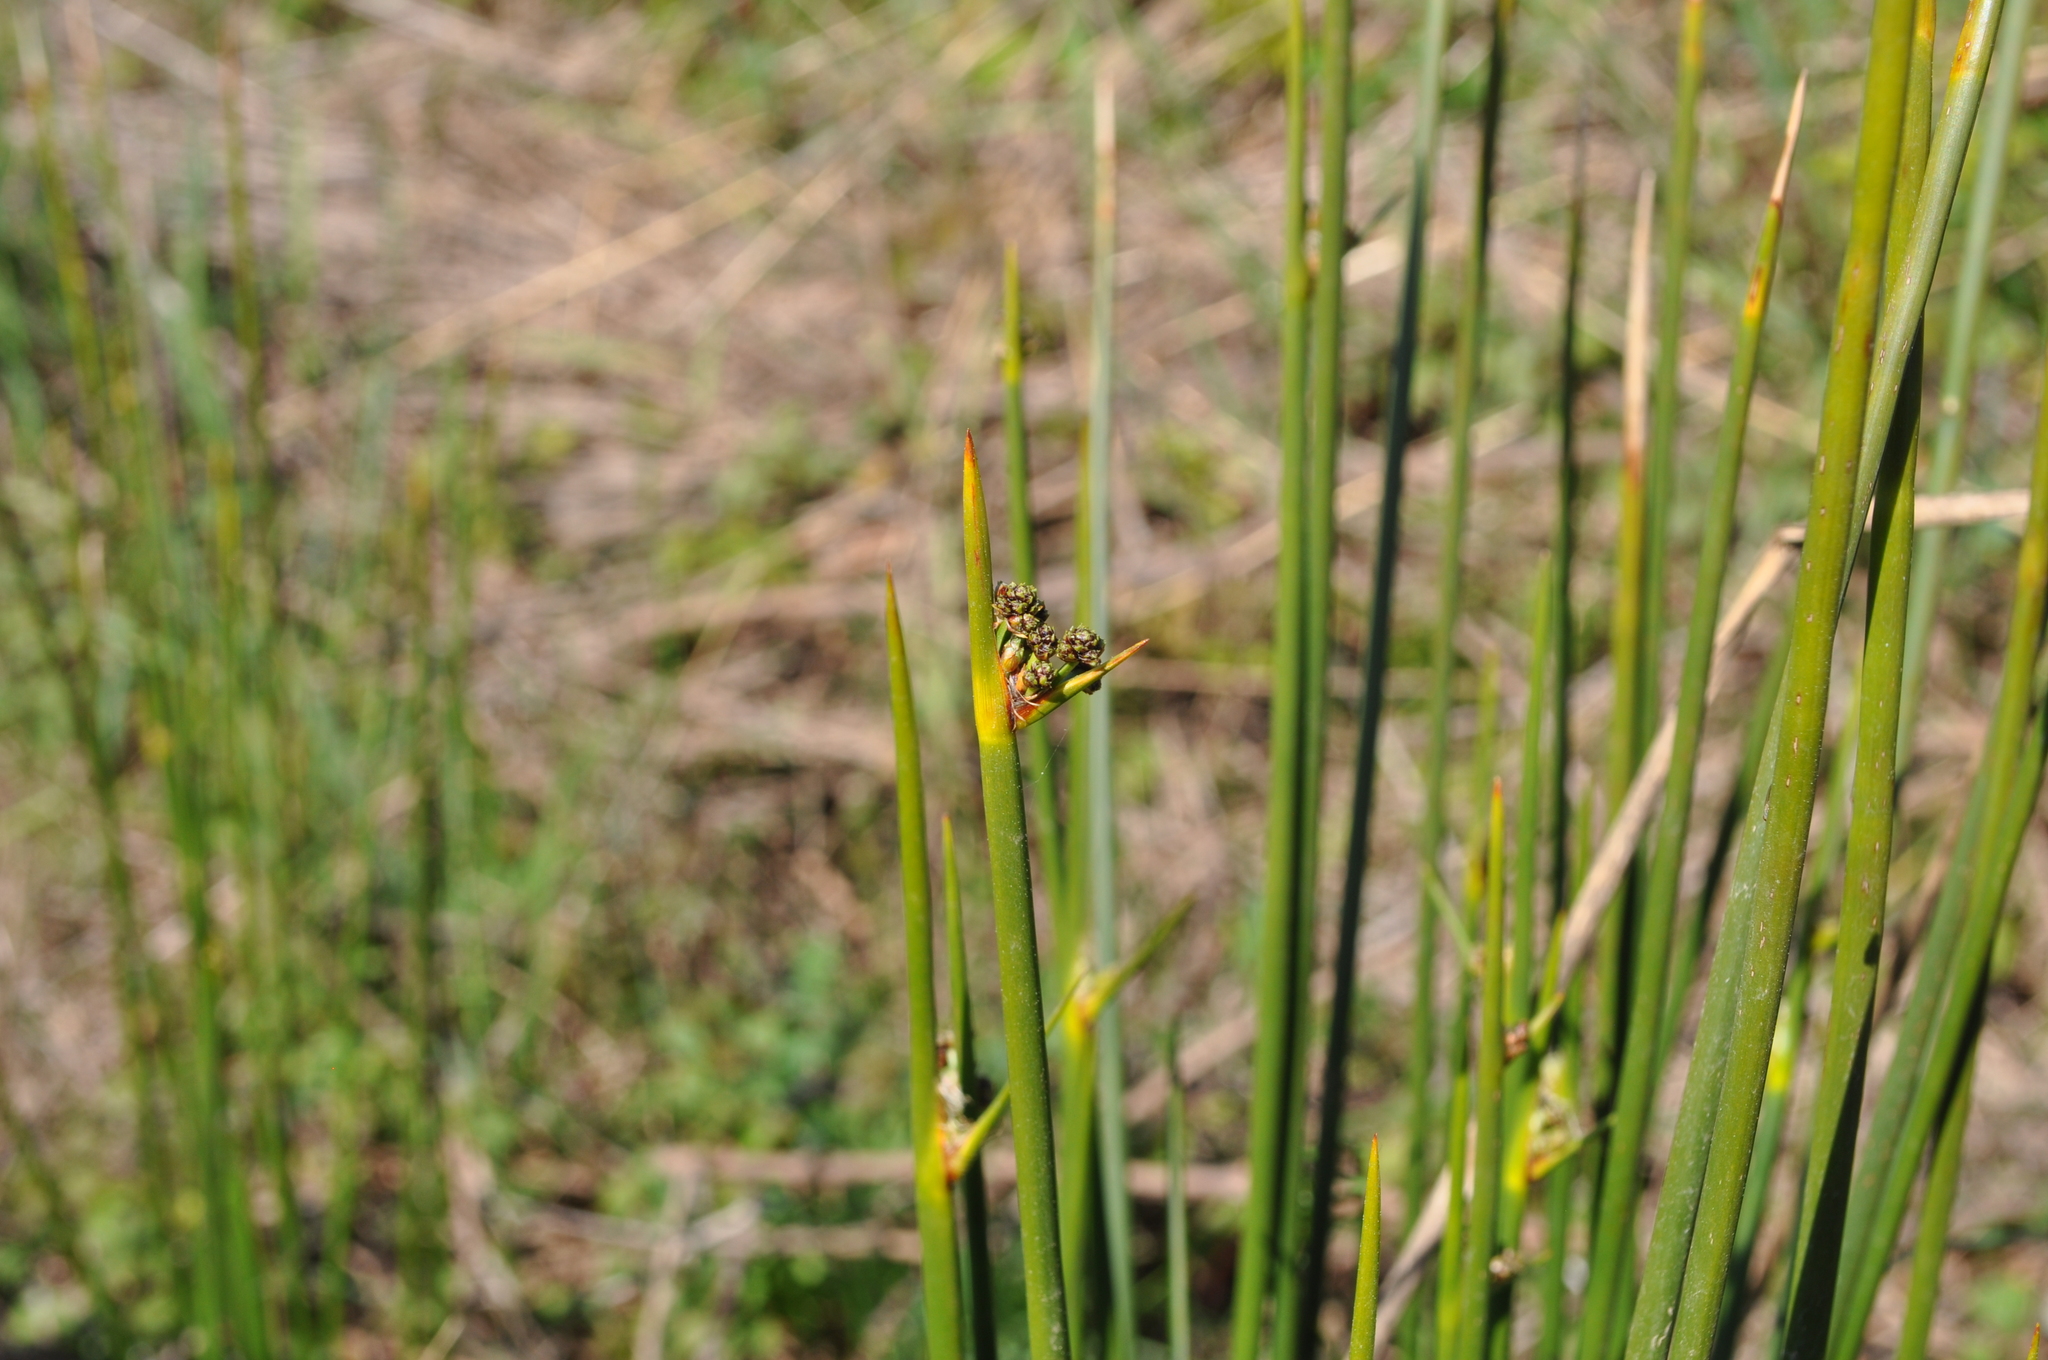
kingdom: Plantae
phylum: Tracheophyta
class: Liliopsida
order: Poales
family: Cyperaceae
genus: Scirpoides
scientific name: Scirpoides holoschoenus
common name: Round-headed club-rush
